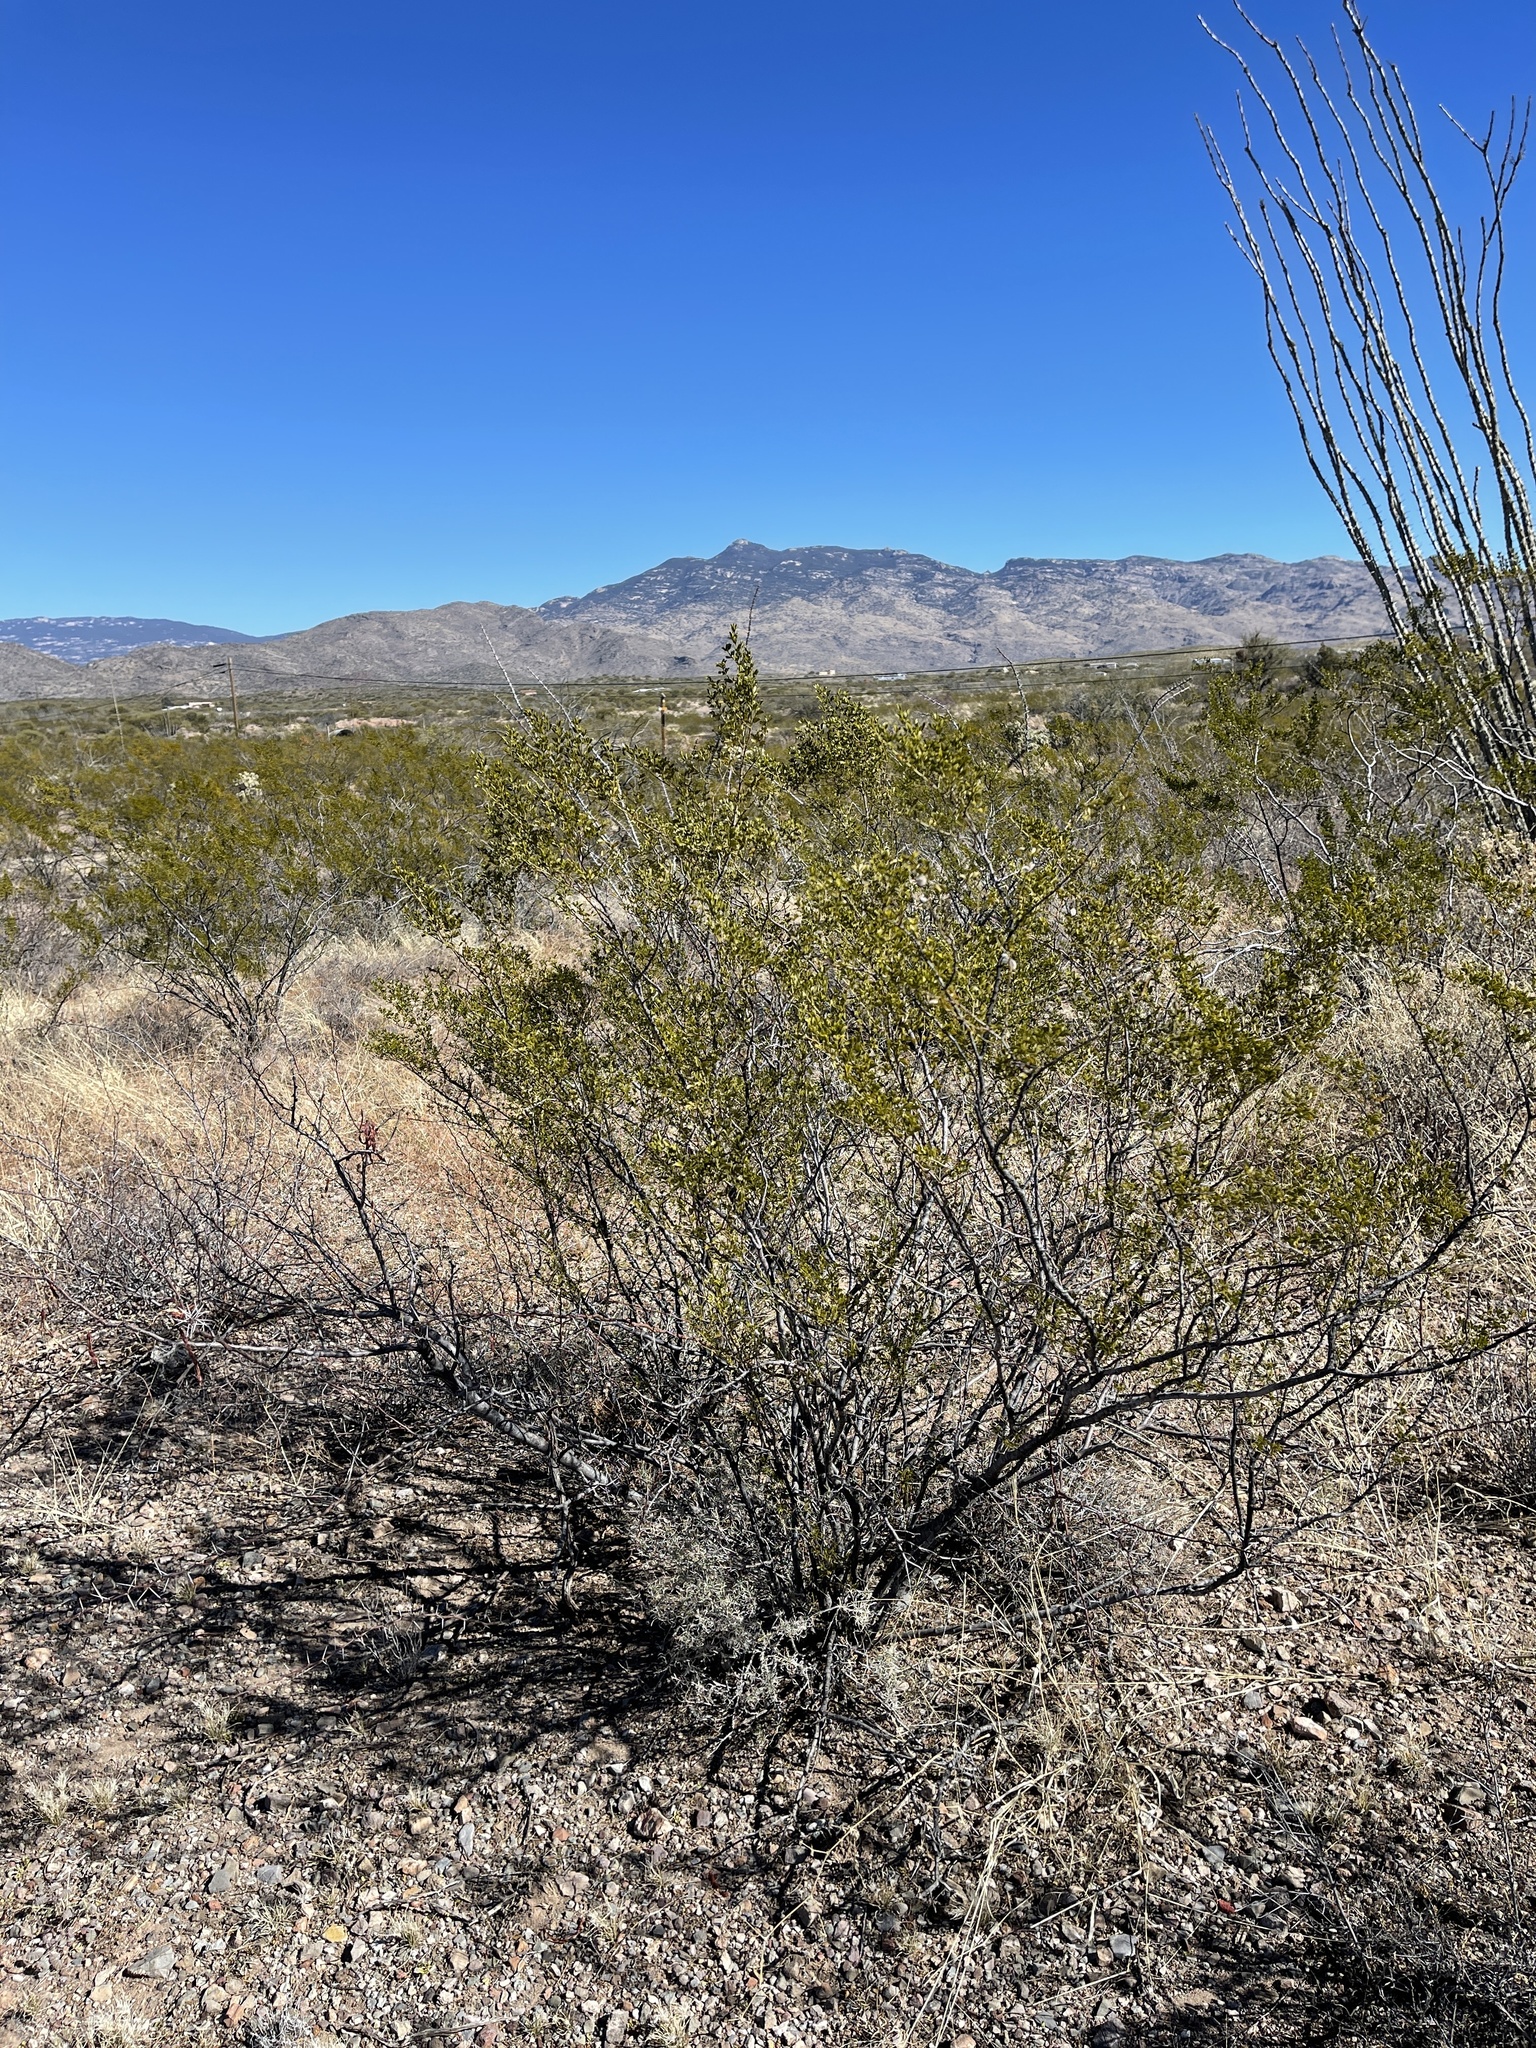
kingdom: Plantae
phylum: Tracheophyta
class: Magnoliopsida
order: Zygophyllales
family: Zygophyllaceae
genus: Larrea
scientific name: Larrea tridentata
